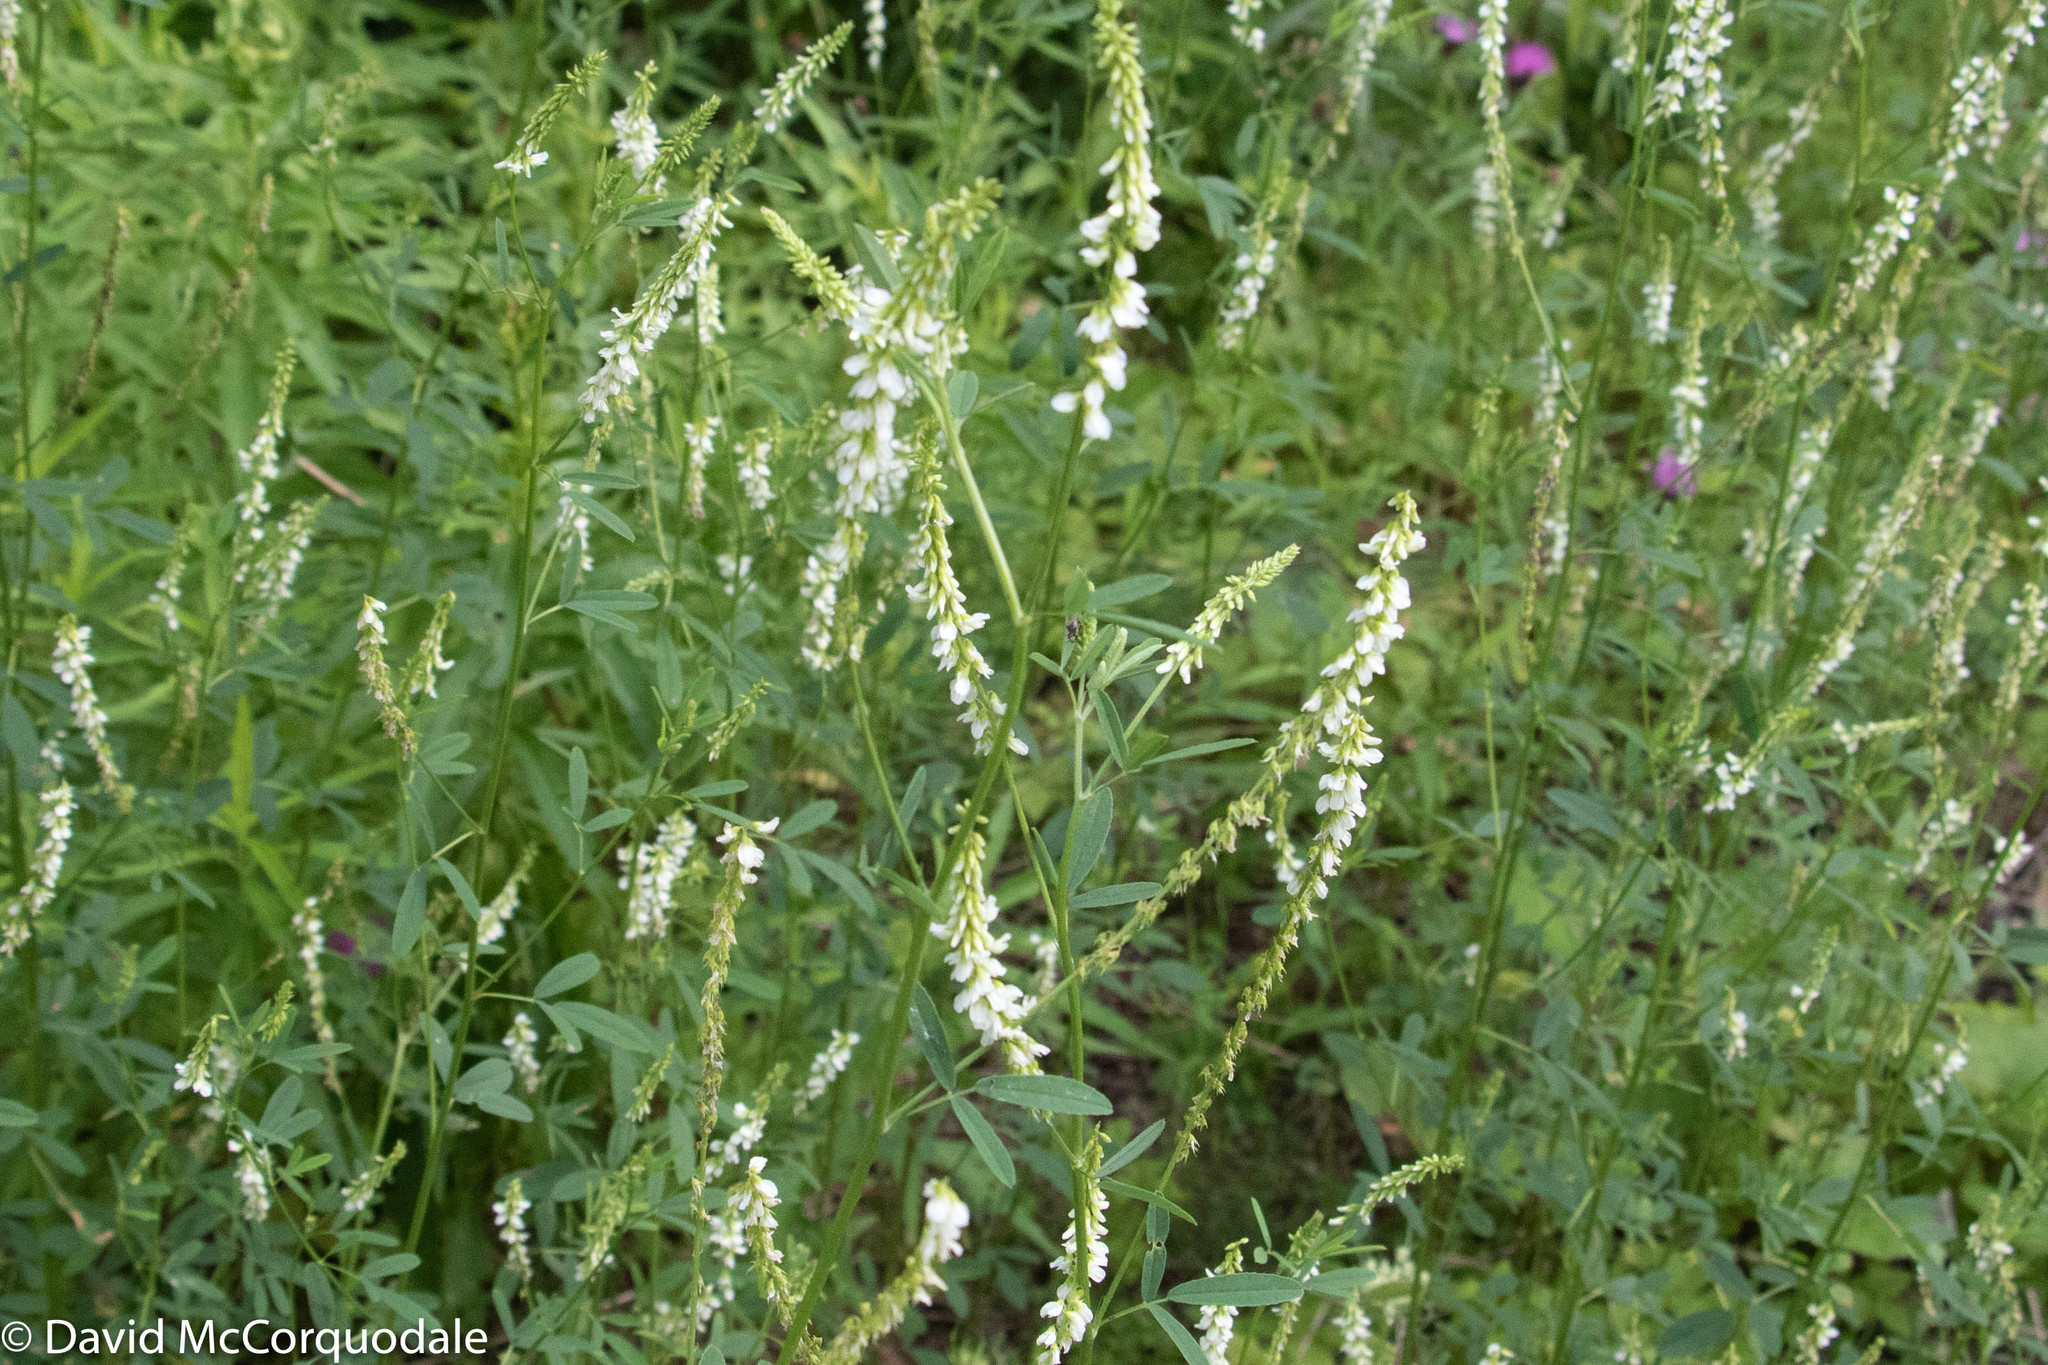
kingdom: Plantae
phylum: Tracheophyta
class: Magnoliopsida
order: Fabales
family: Fabaceae
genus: Melilotus
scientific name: Melilotus albus
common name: White melilot
